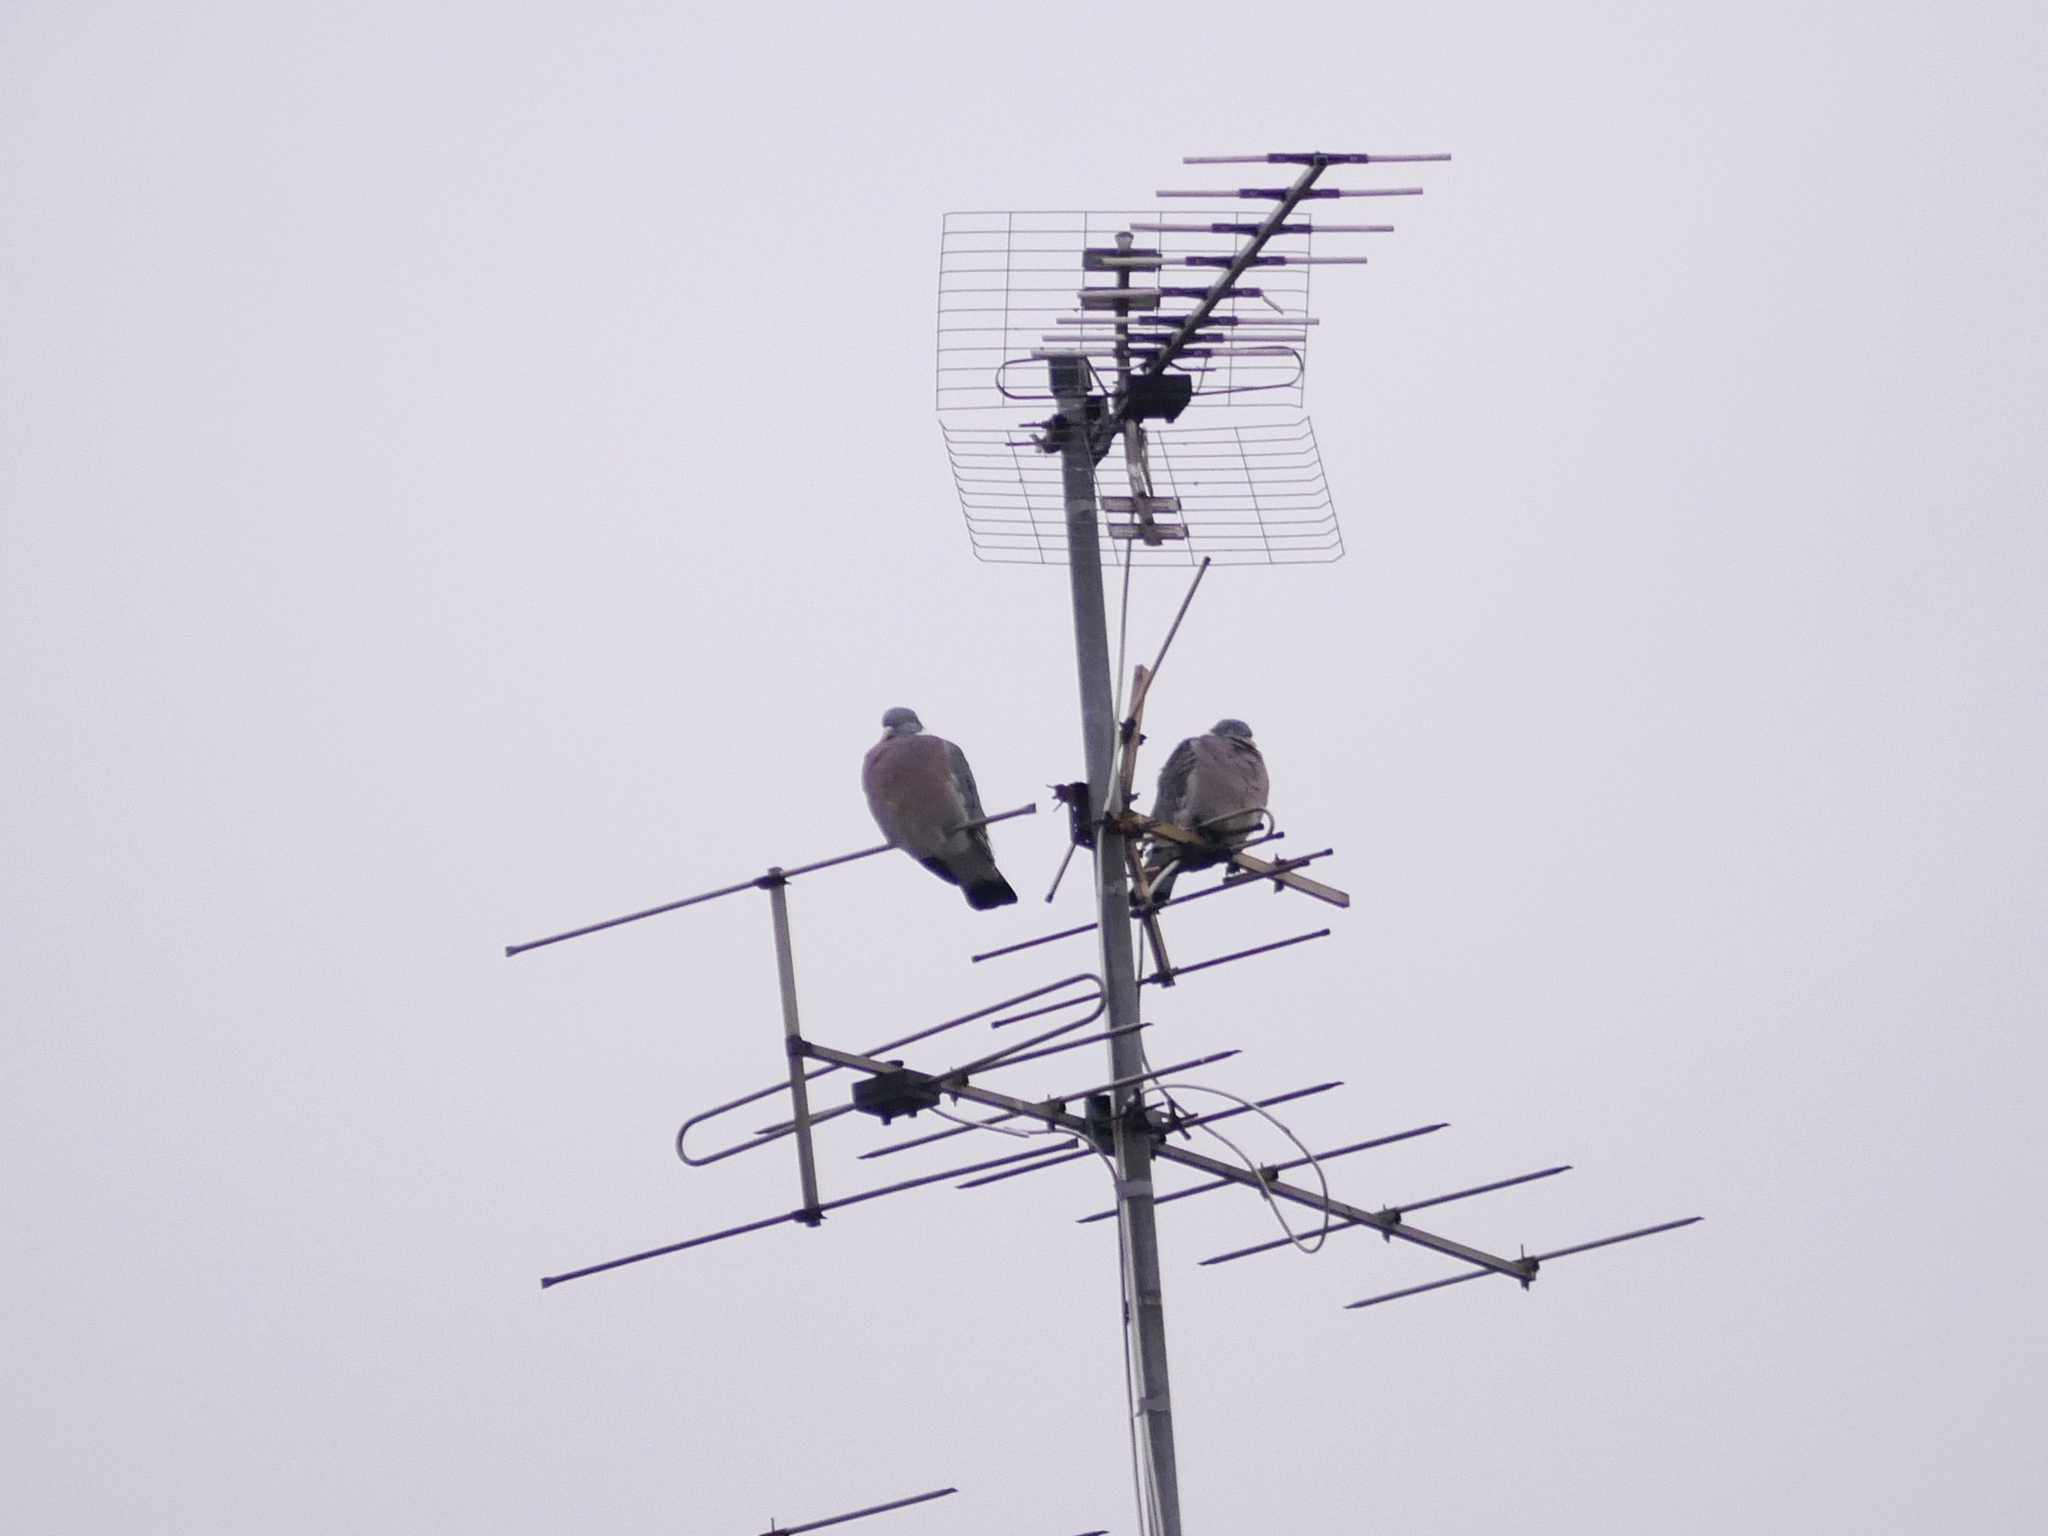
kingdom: Animalia
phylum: Chordata
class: Aves
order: Columbiformes
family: Columbidae
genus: Columba
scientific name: Columba palumbus
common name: Common wood pigeon
